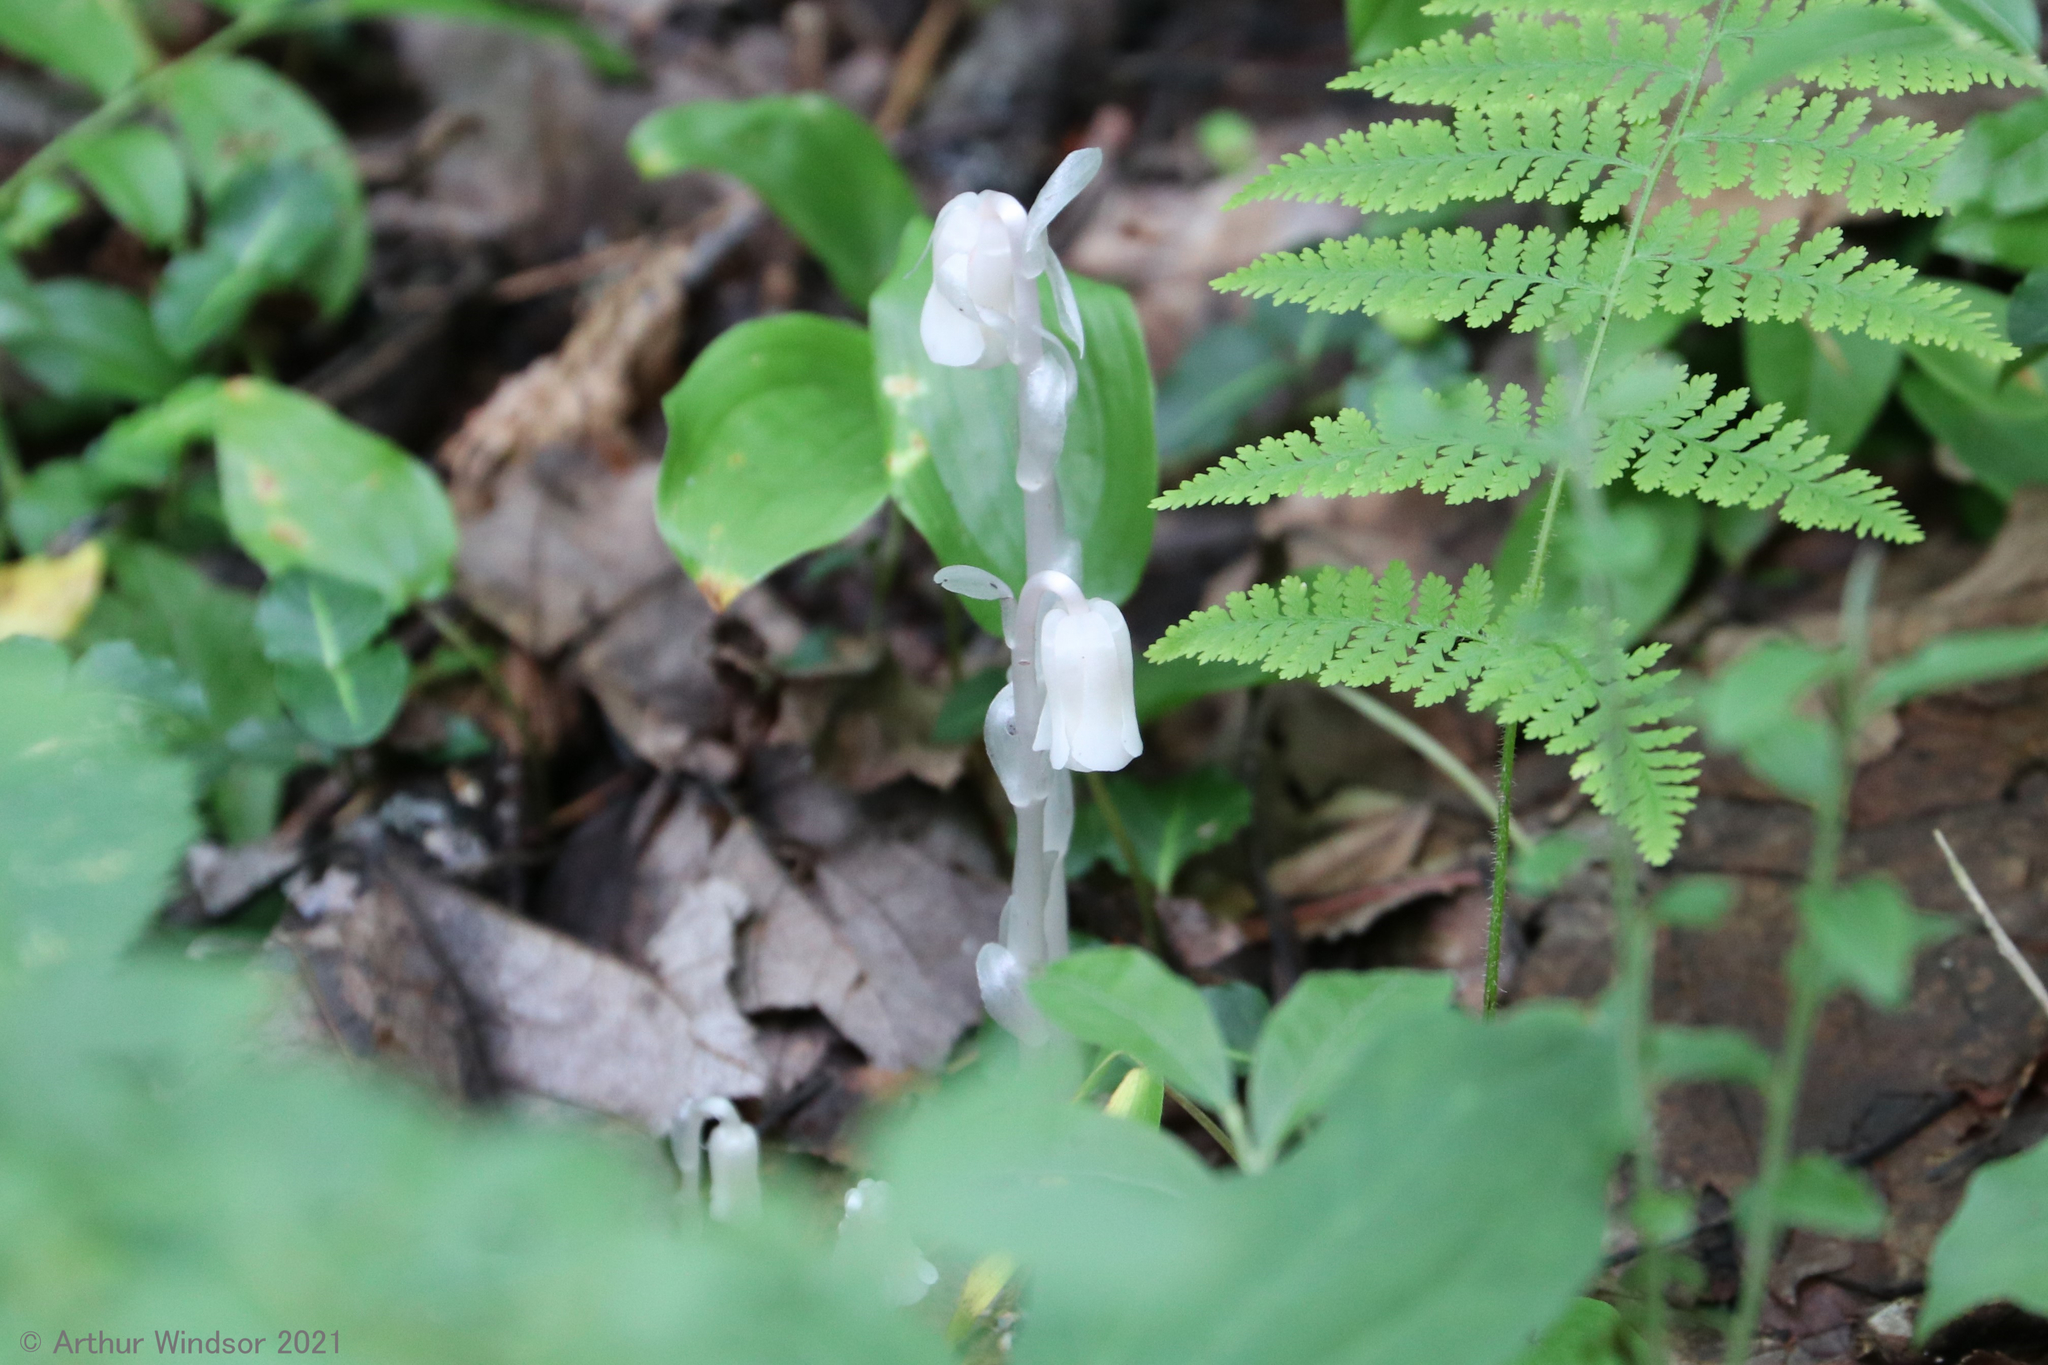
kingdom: Plantae
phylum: Tracheophyta
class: Magnoliopsida
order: Ericales
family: Ericaceae
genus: Monotropa
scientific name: Monotropa uniflora
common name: Convulsion root
